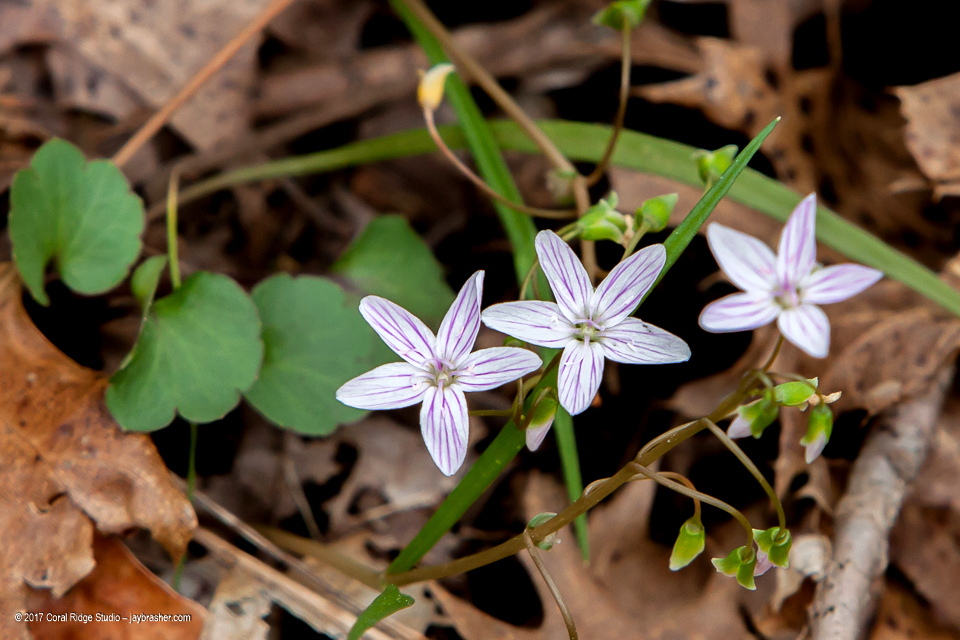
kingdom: Plantae
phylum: Tracheophyta
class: Magnoliopsida
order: Caryophyllales
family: Montiaceae
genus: Claytonia
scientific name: Claytonia virginica
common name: Virginia springbeauty
